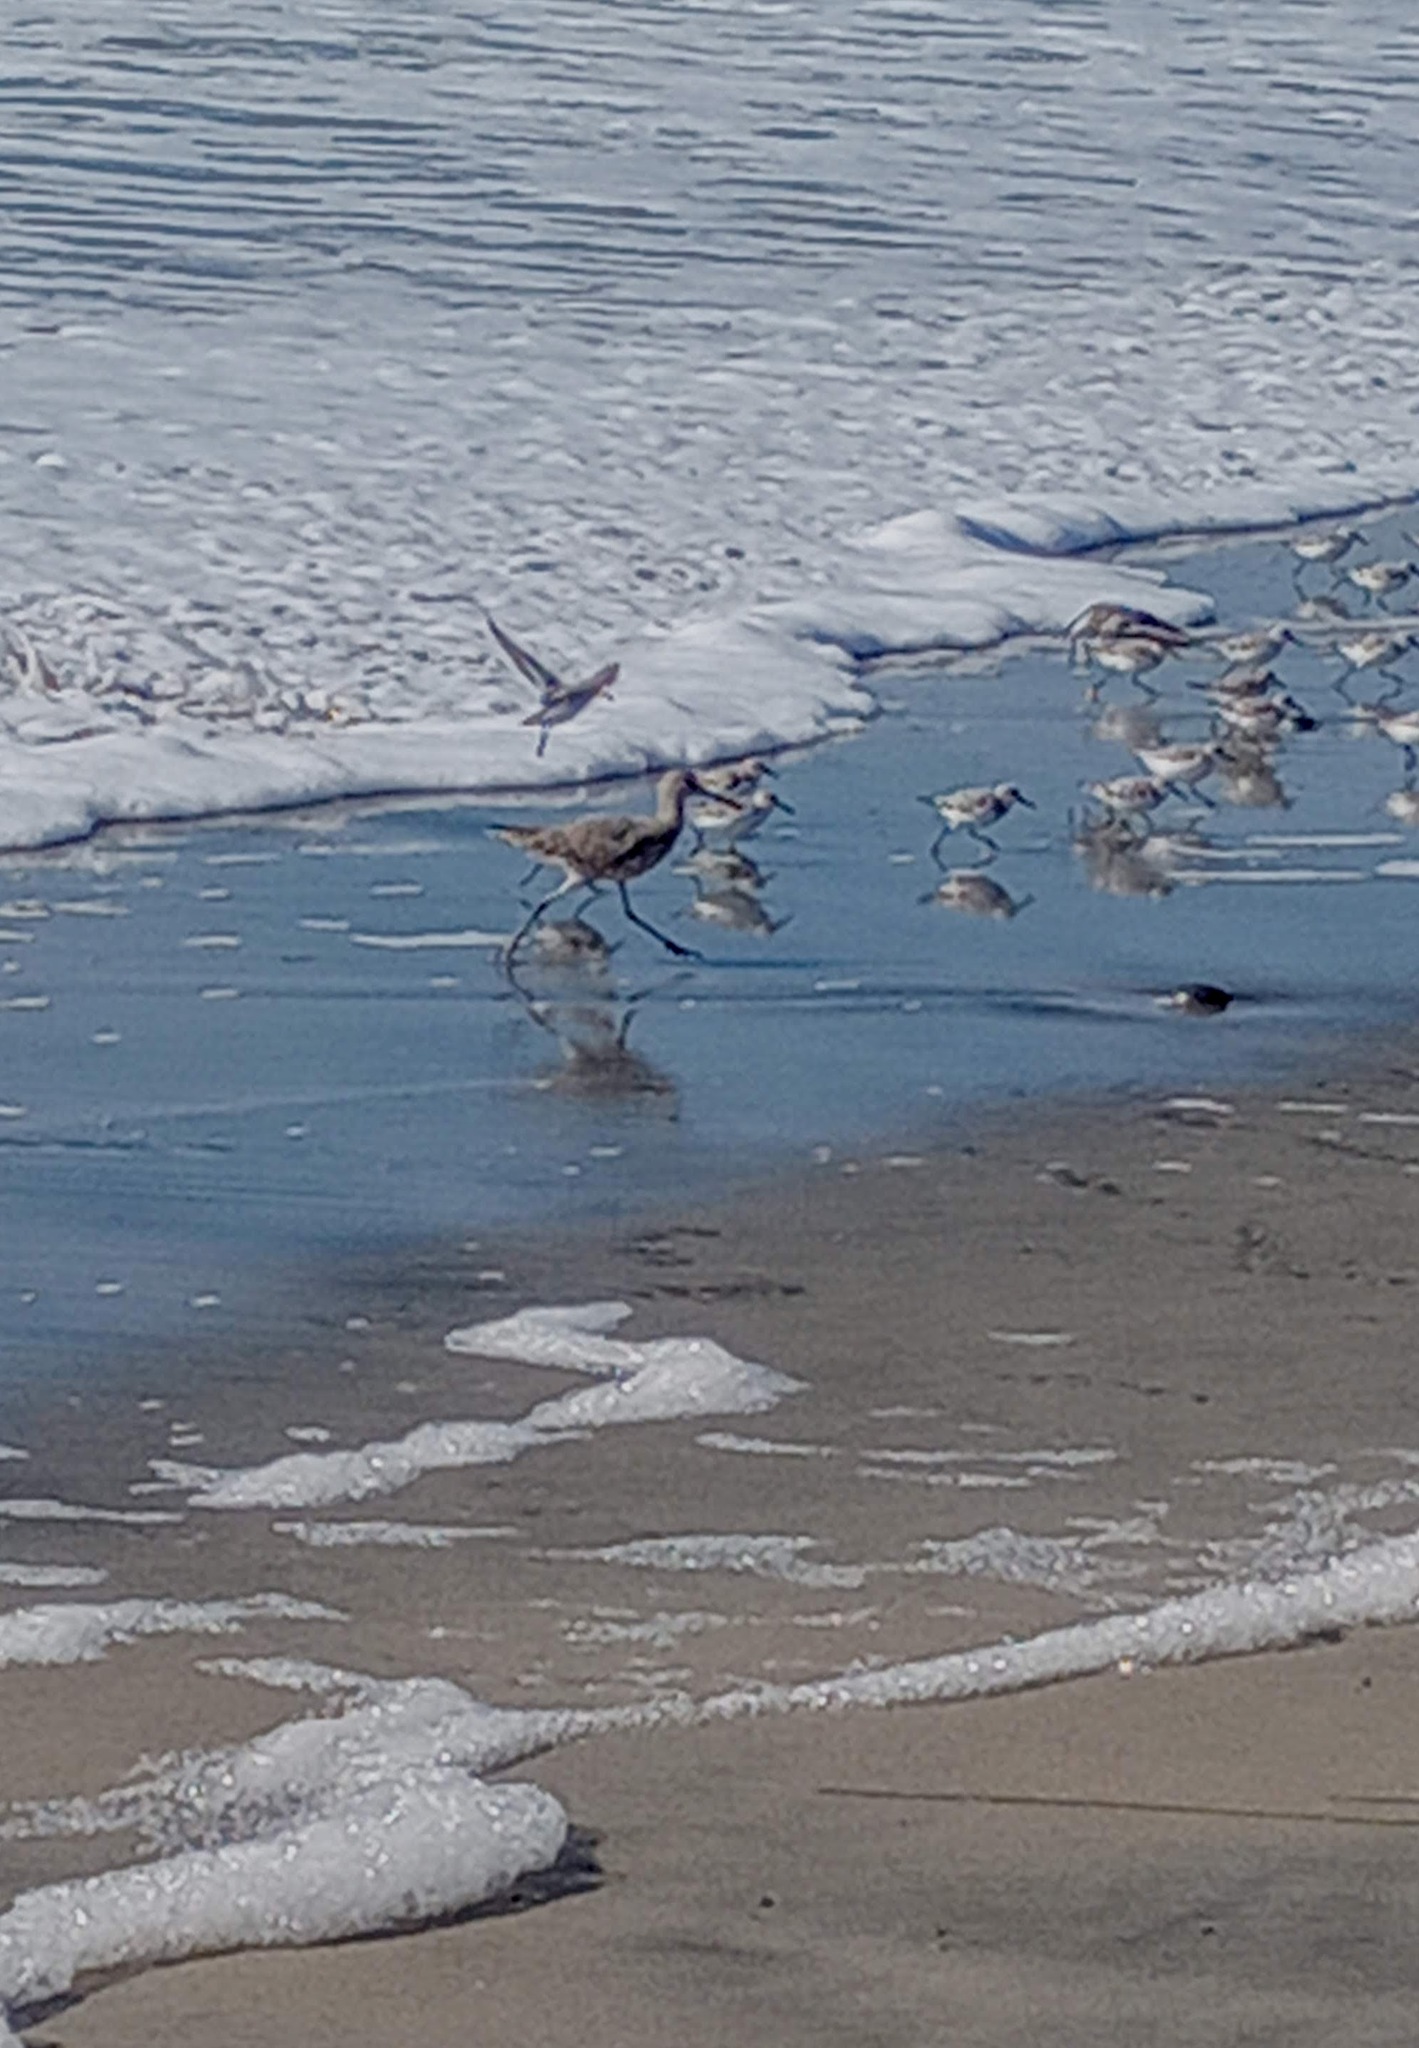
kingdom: Animalia
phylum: Chordata
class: Aves
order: Charadriiformes
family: Scolopacidae
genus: Tringa
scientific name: Tringa semipalmata
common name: Willet
